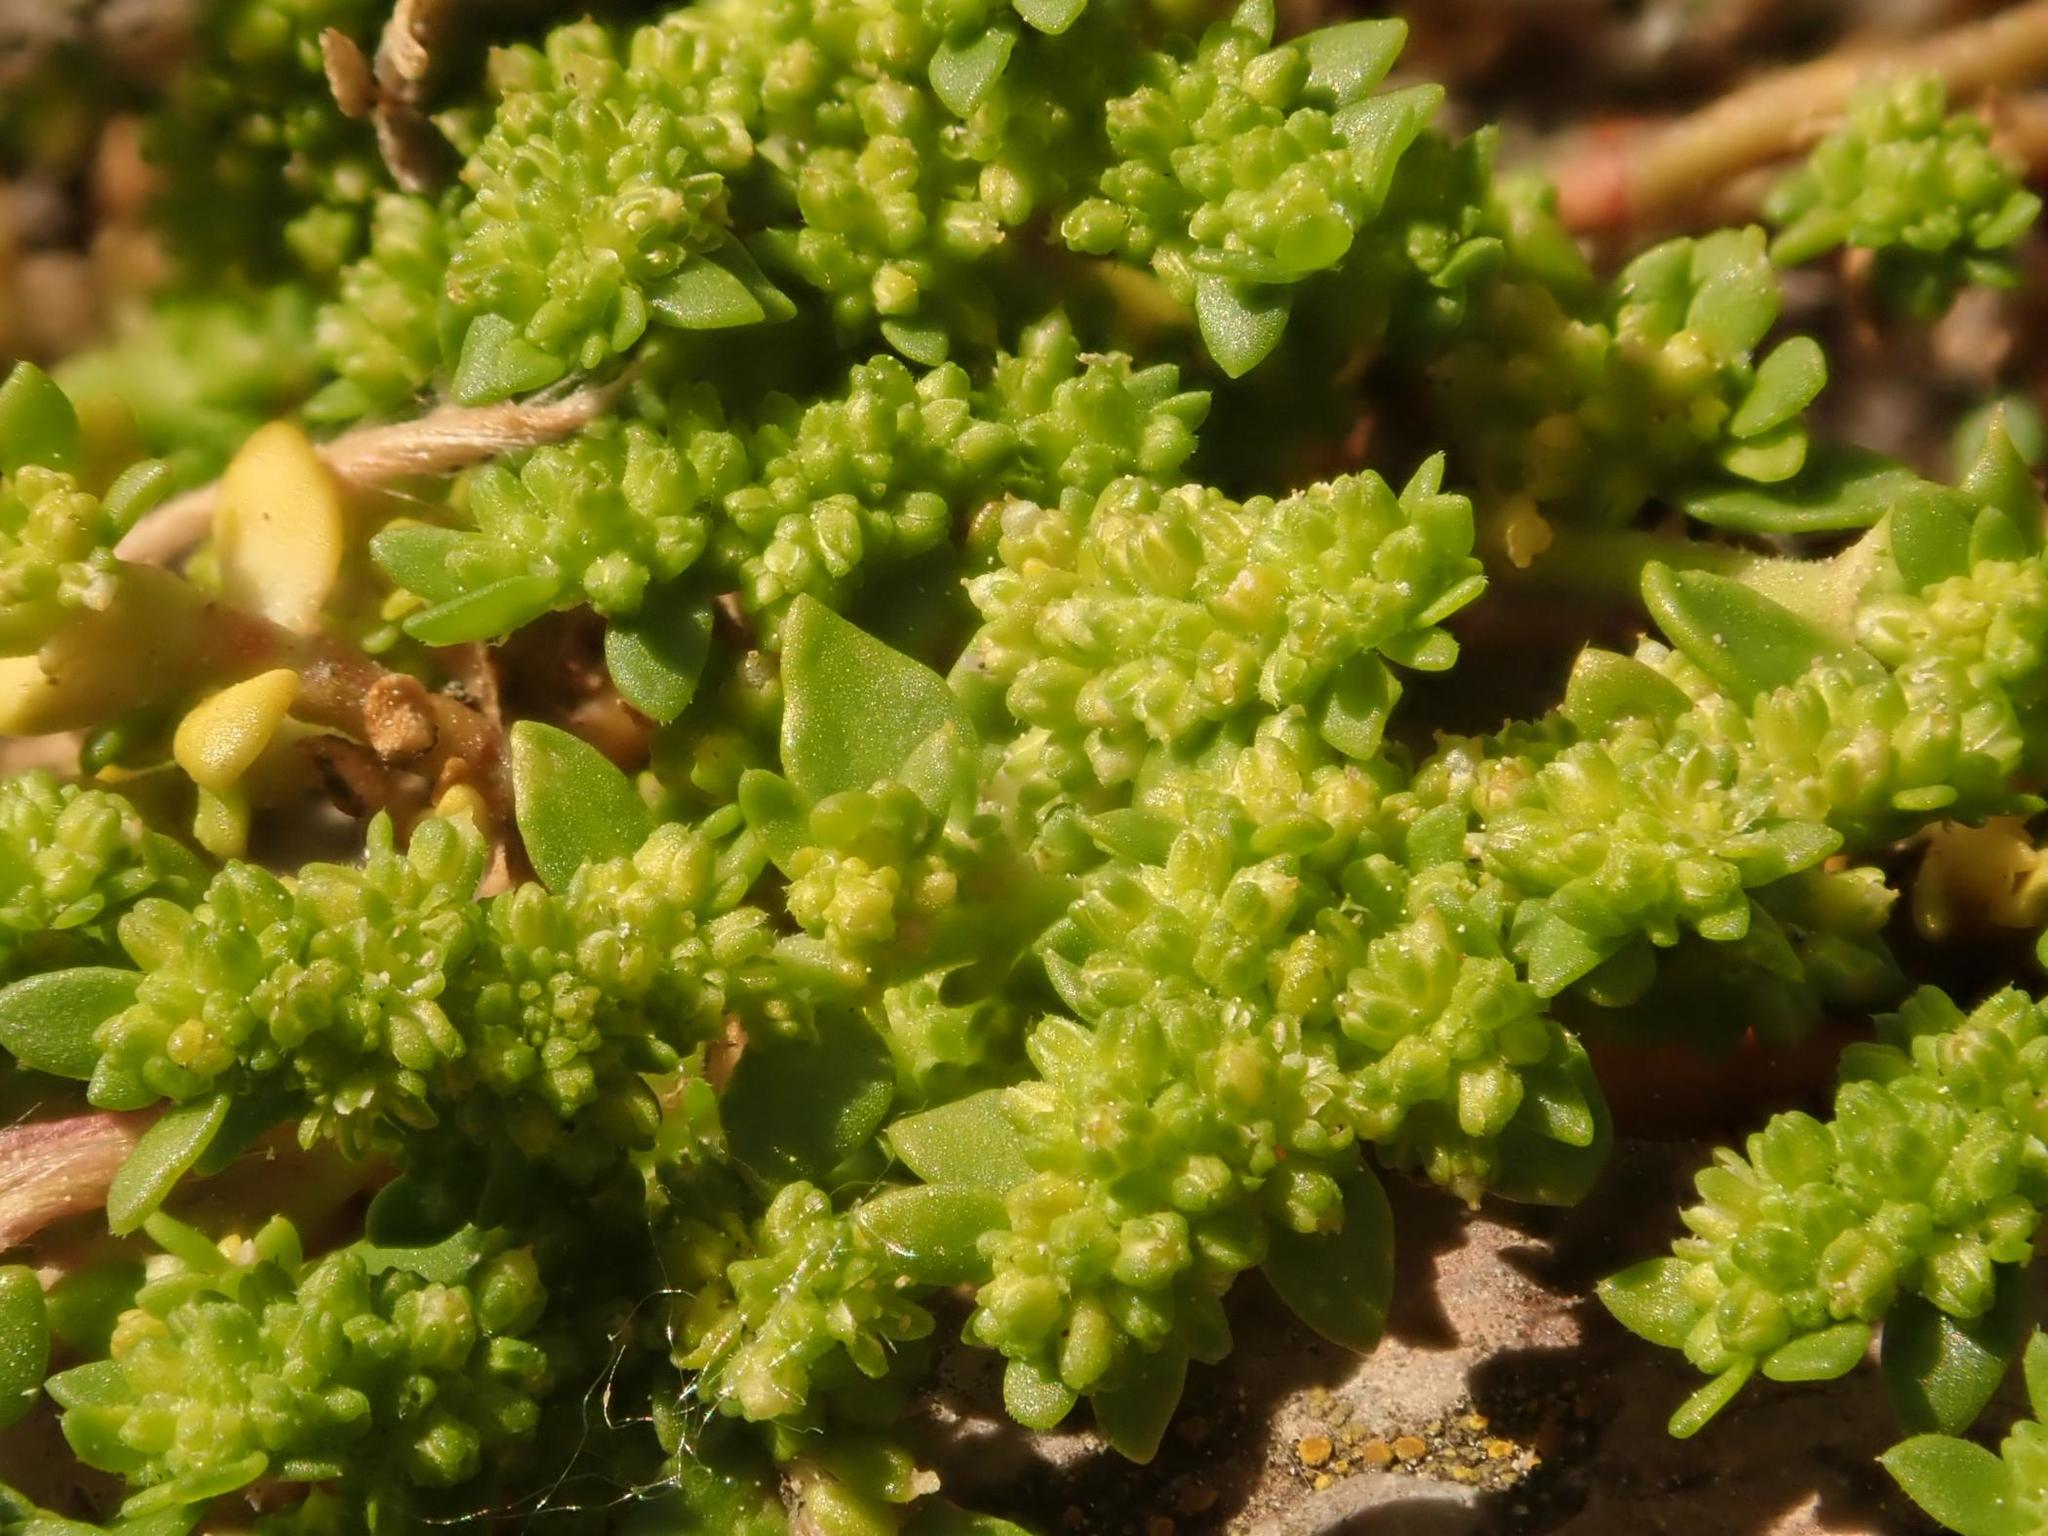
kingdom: Plantae
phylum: Tracheophyta
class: Magnoliopsida
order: Caryophyllales
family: Caryophyllaceae
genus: Herniaria
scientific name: Herniaria glabra
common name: Smooth rupturewort
